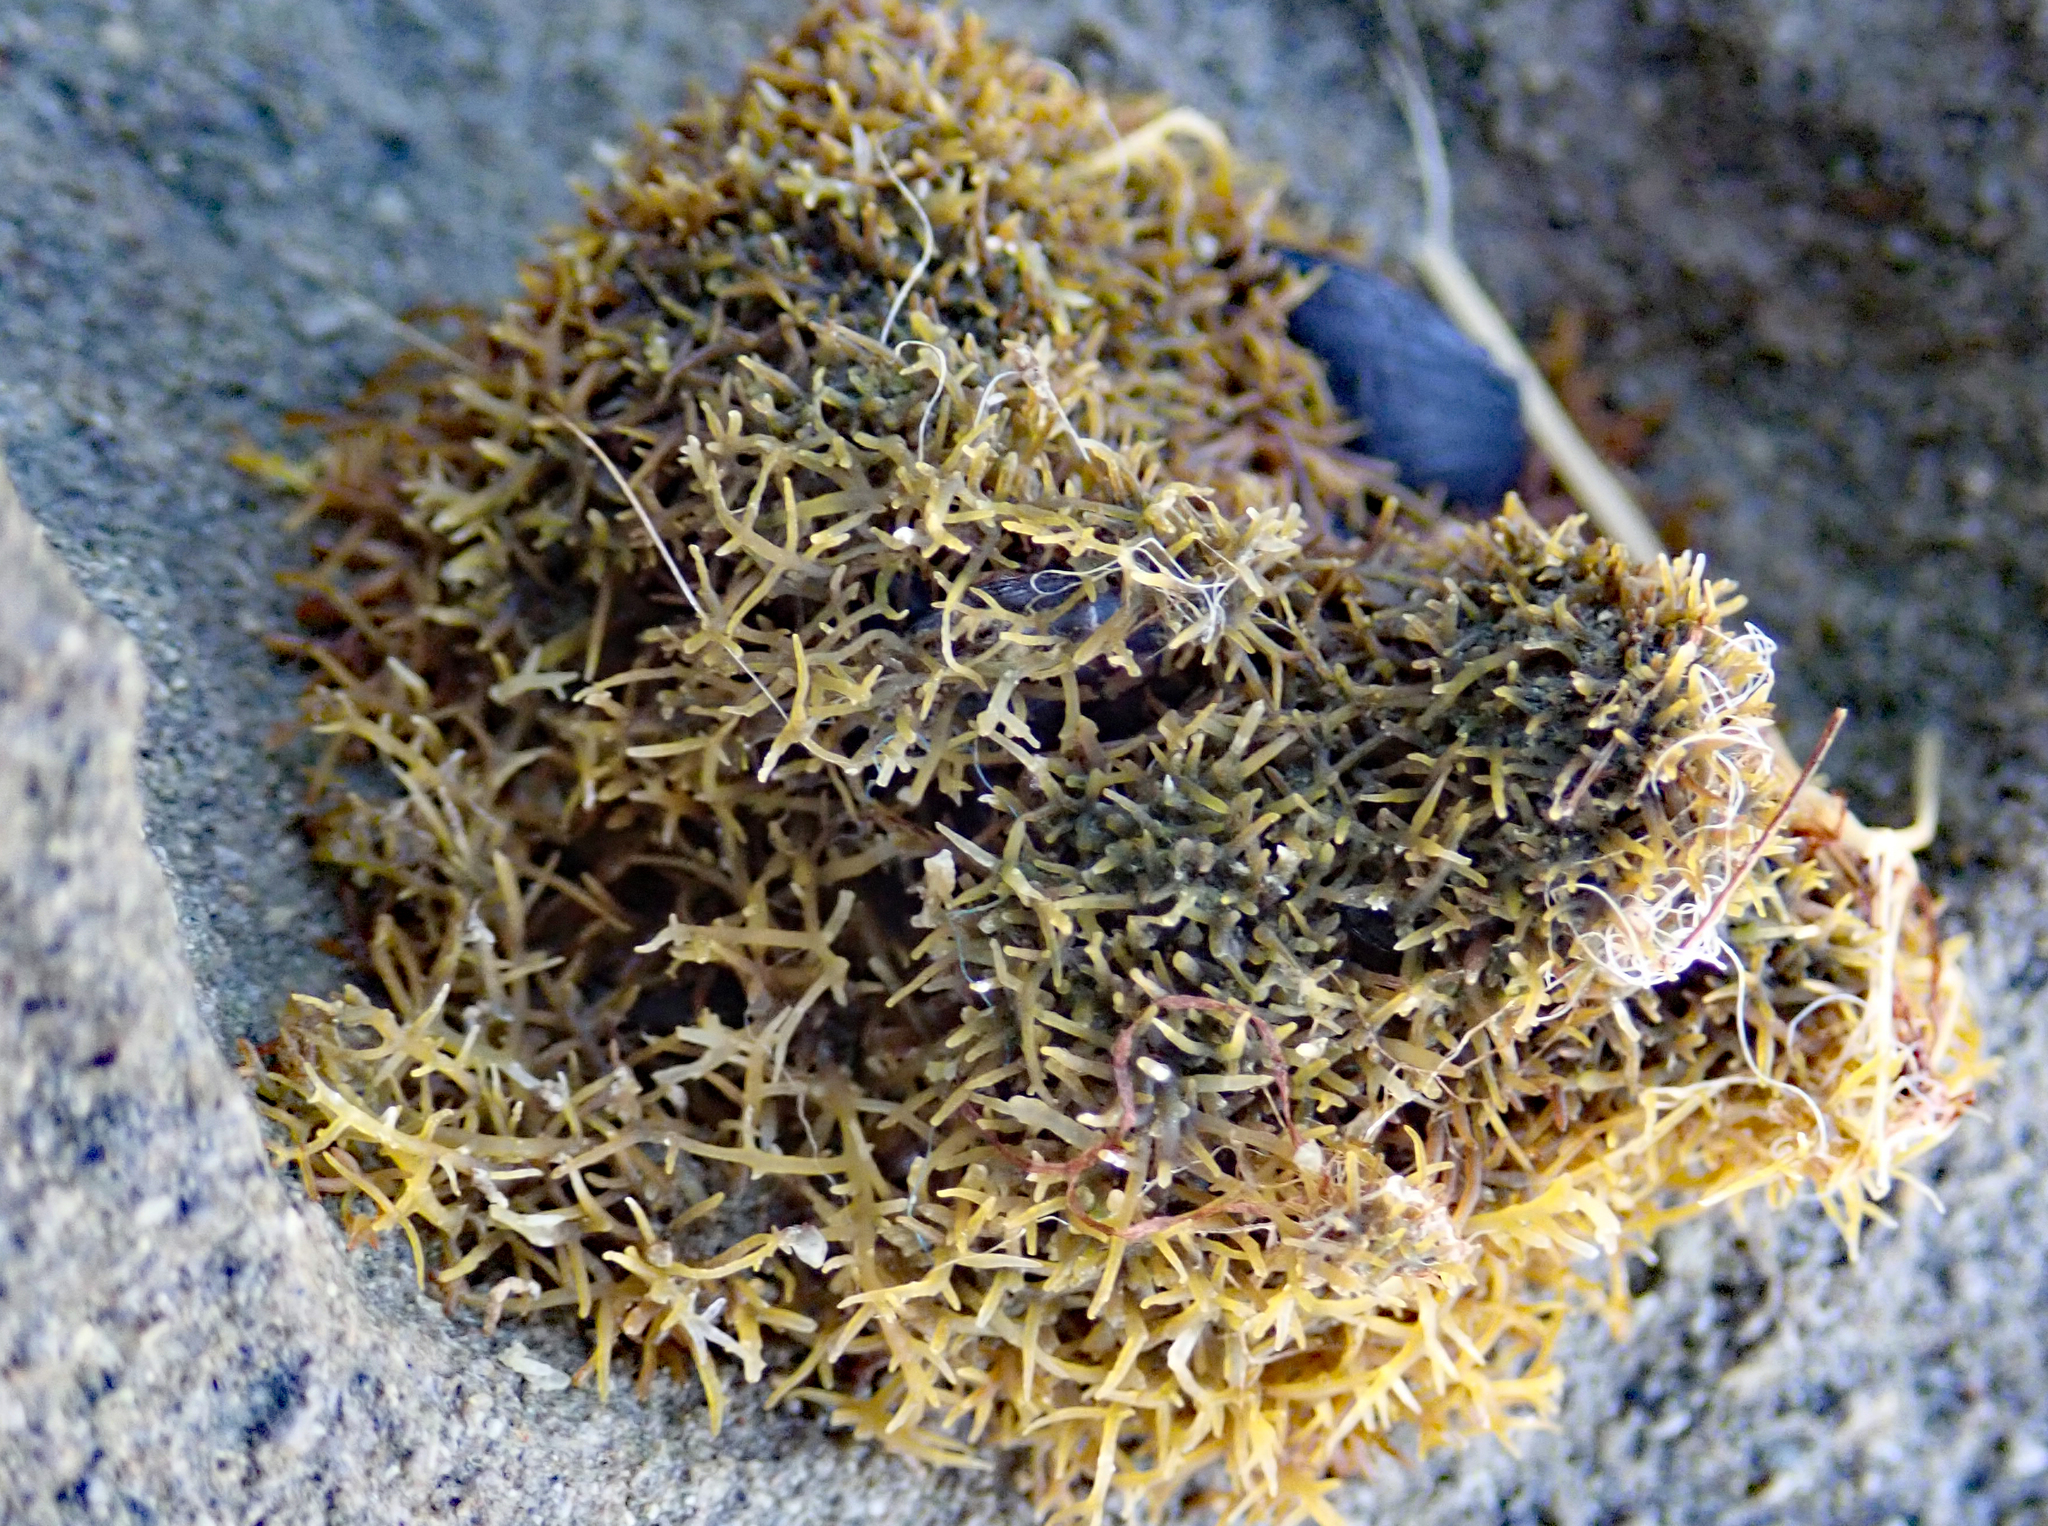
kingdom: Plantae
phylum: Rhodophyta
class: Florideophyceae
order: Gelidiales
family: Gelidiaceae
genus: Capreolia
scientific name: Capreolia implexa
